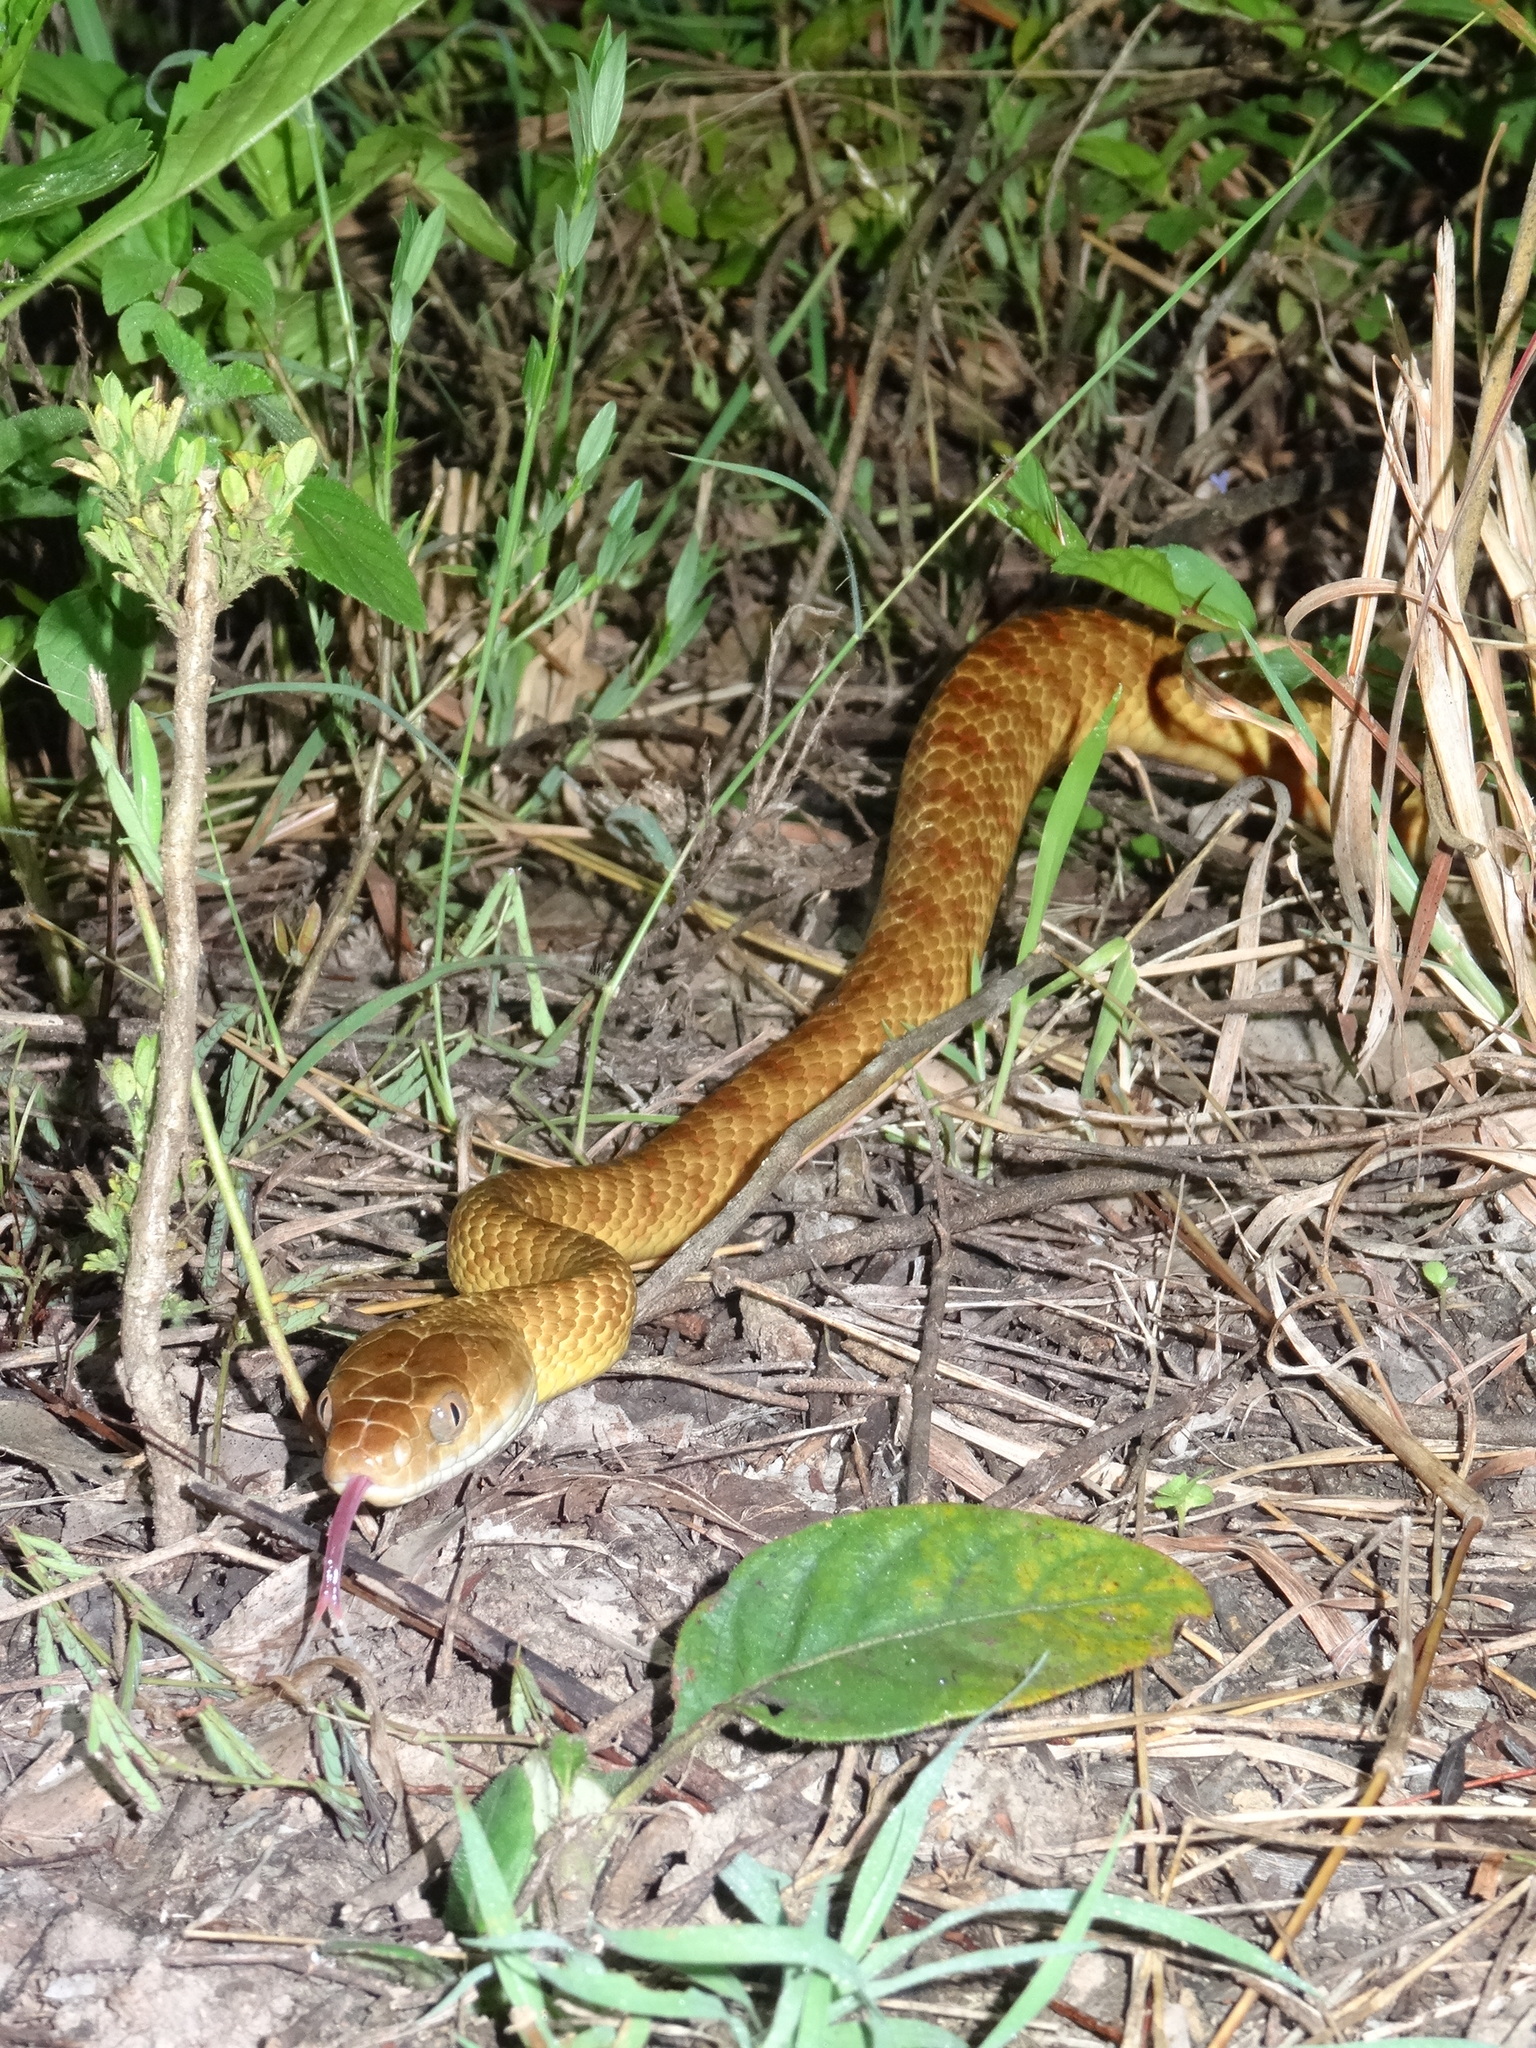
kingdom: Animalia
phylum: Chordata
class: Squamata
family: Colubridae
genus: Boiga
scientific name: Boiga irregularis
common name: Brown tree snake
